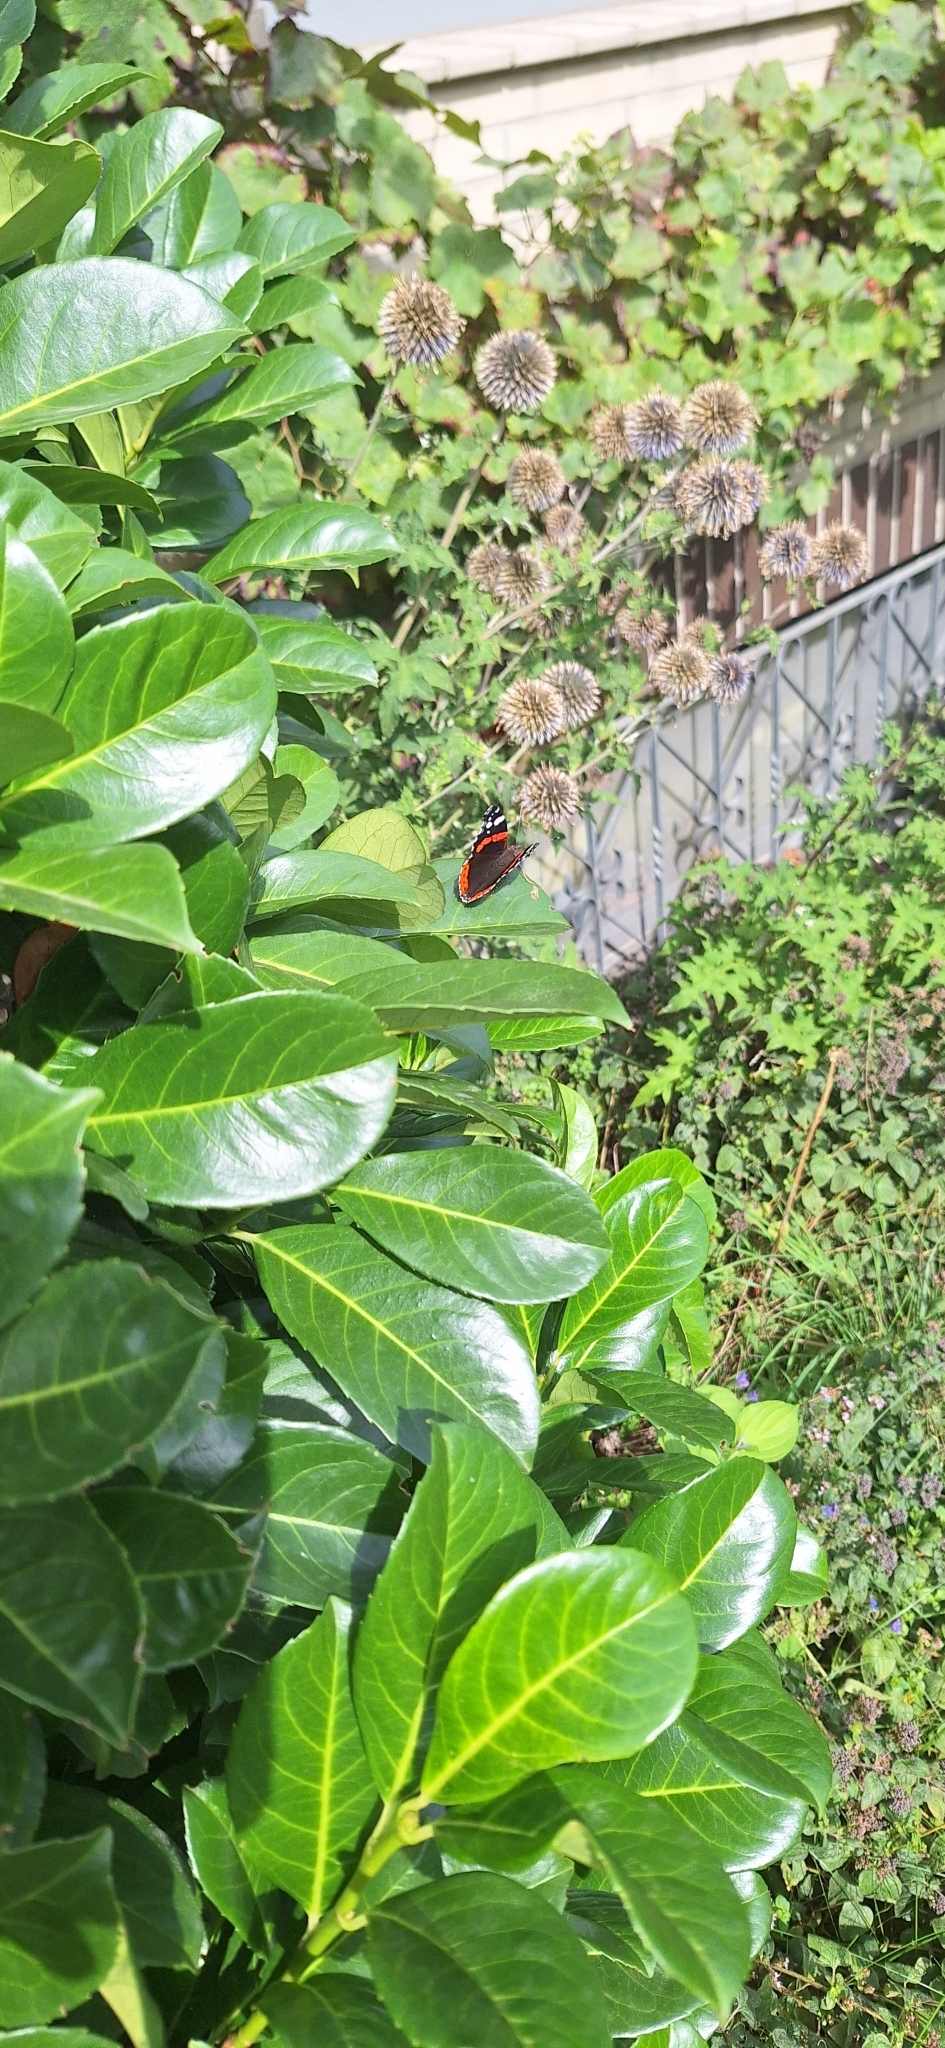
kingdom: Animalia
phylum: Arthropoda
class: Insecta
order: Lepidoptera
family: Nymphalidae
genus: Vanessa
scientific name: Vanessa atalanta
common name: Red admiral
